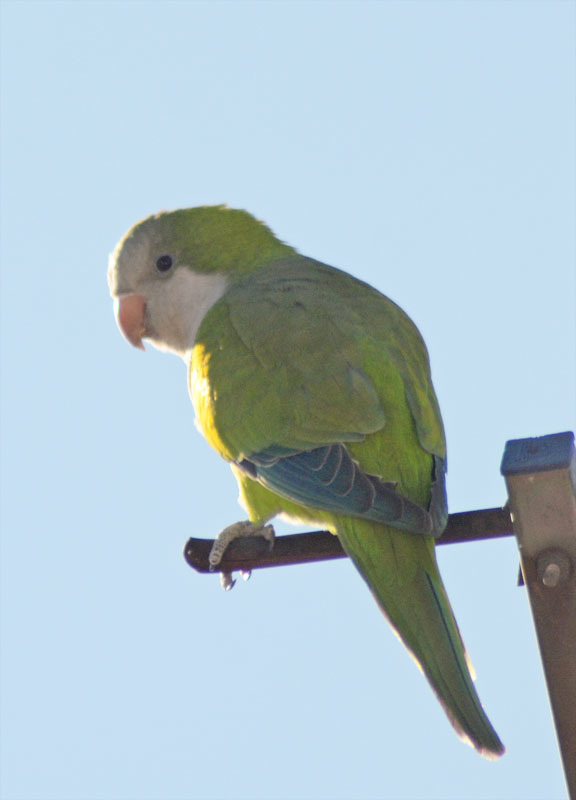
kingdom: Animalia
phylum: Chordata
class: Aves
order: Psittaciformes
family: Psittacidae
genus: Myiopsitta
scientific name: Myiopsitta monachus
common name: Monk parakeet
